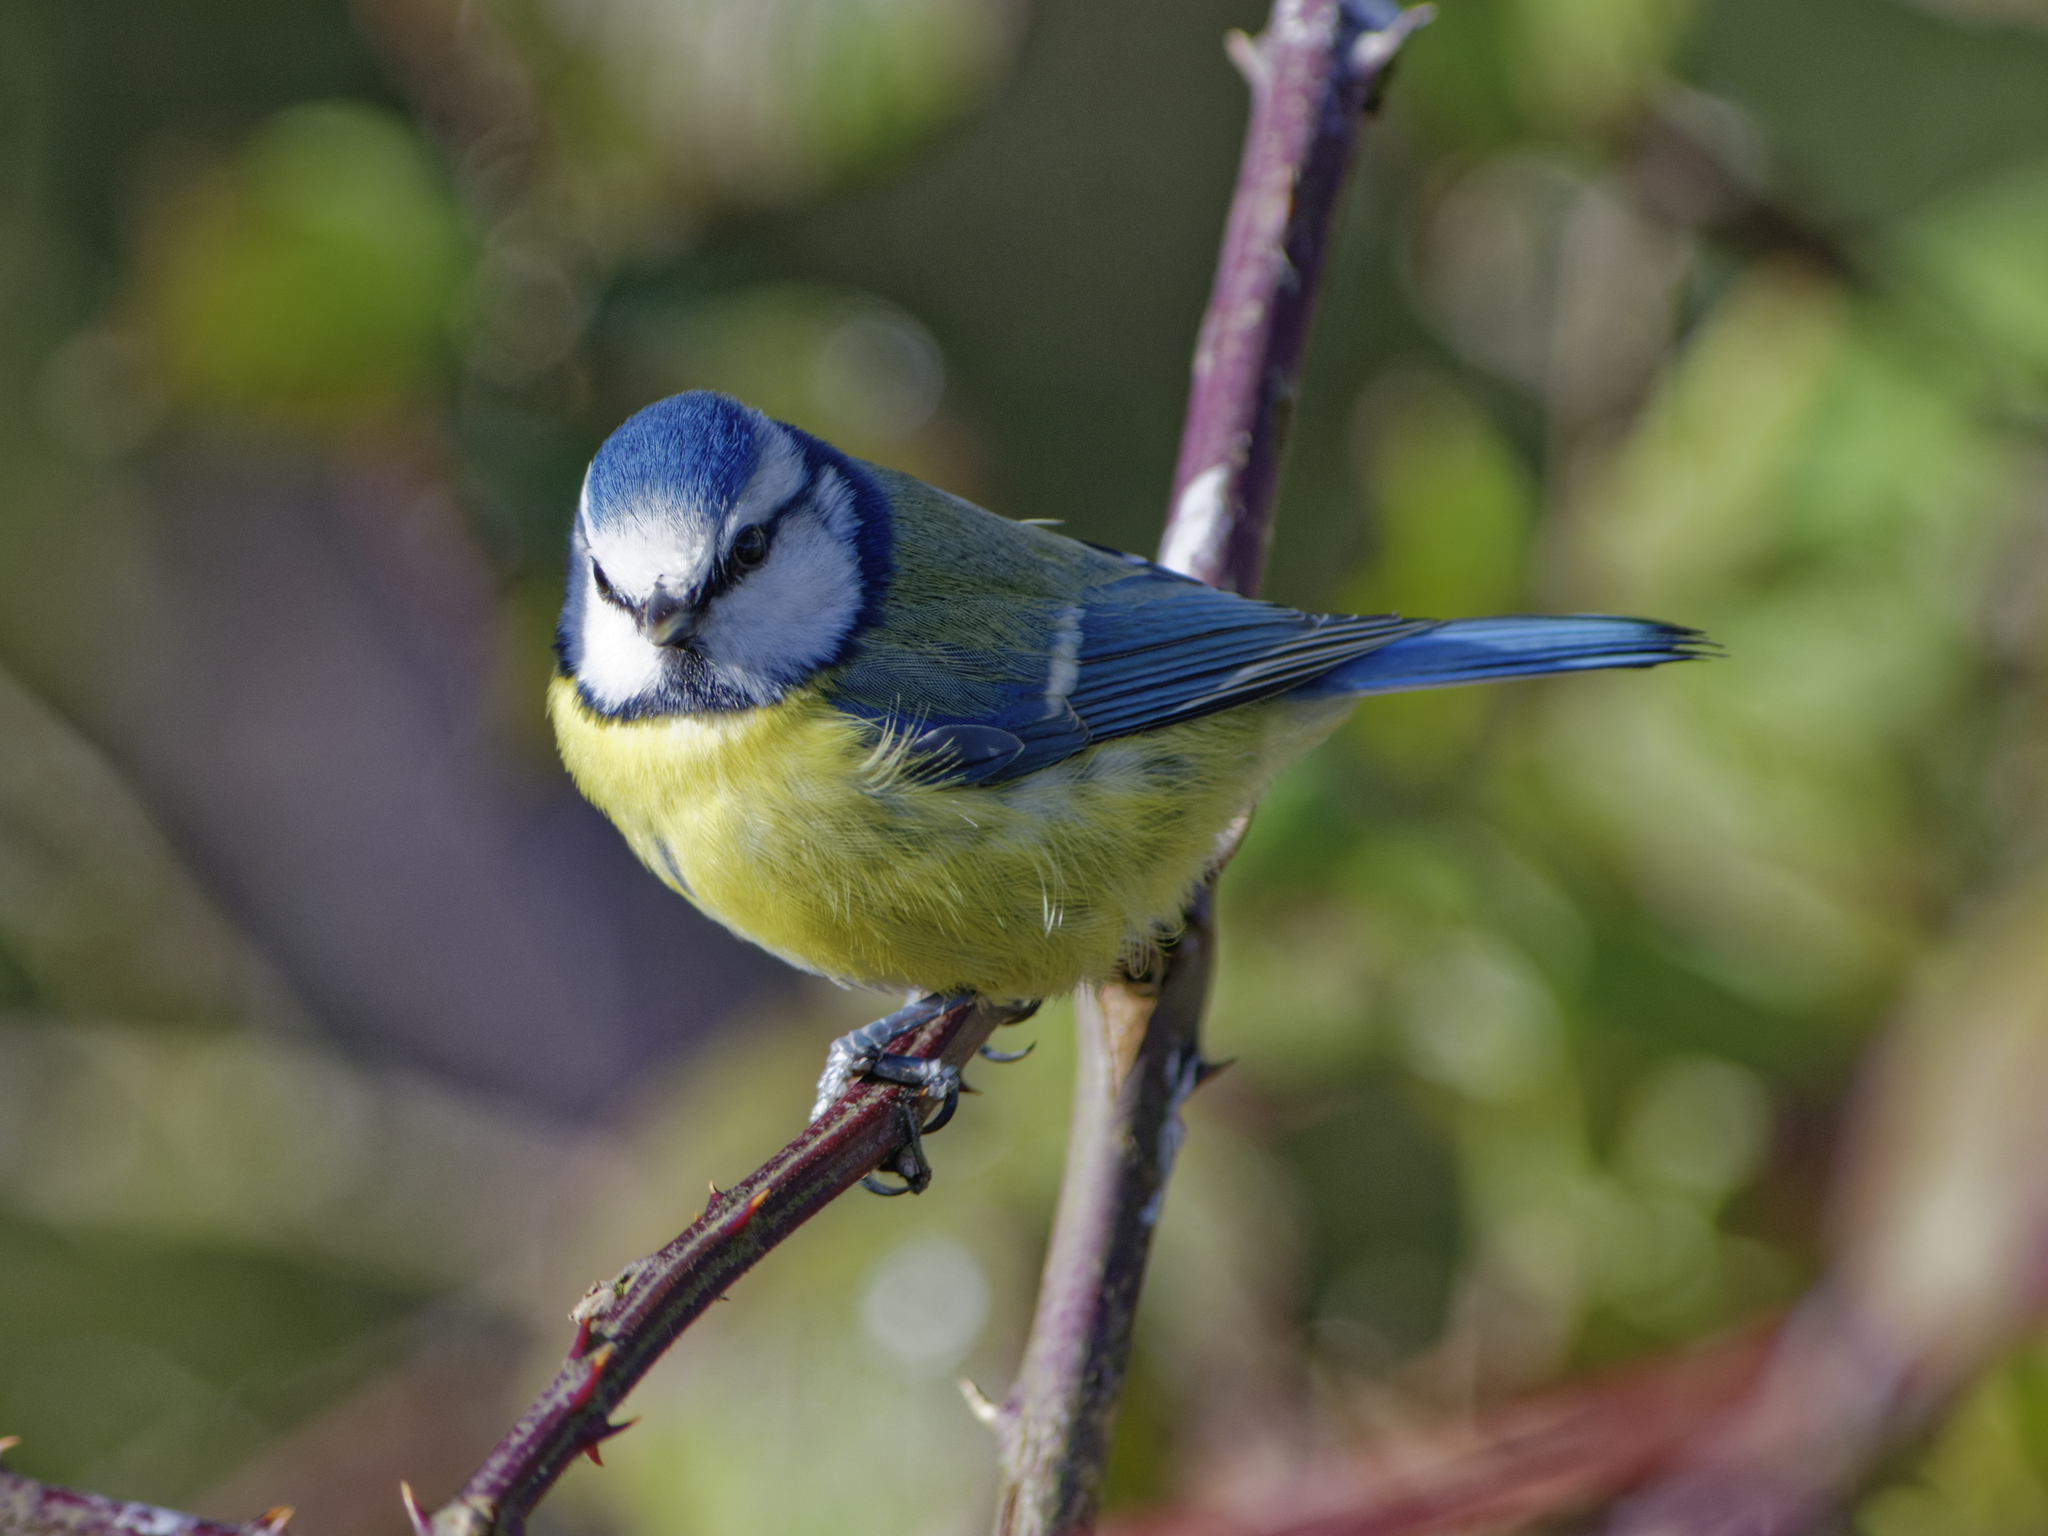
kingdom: Animalia
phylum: Chordata
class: Aves
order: Passeriformes
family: Paridae
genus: Cyanistes
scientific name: Cyanistes caeruleus
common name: Eurasian blue tit
